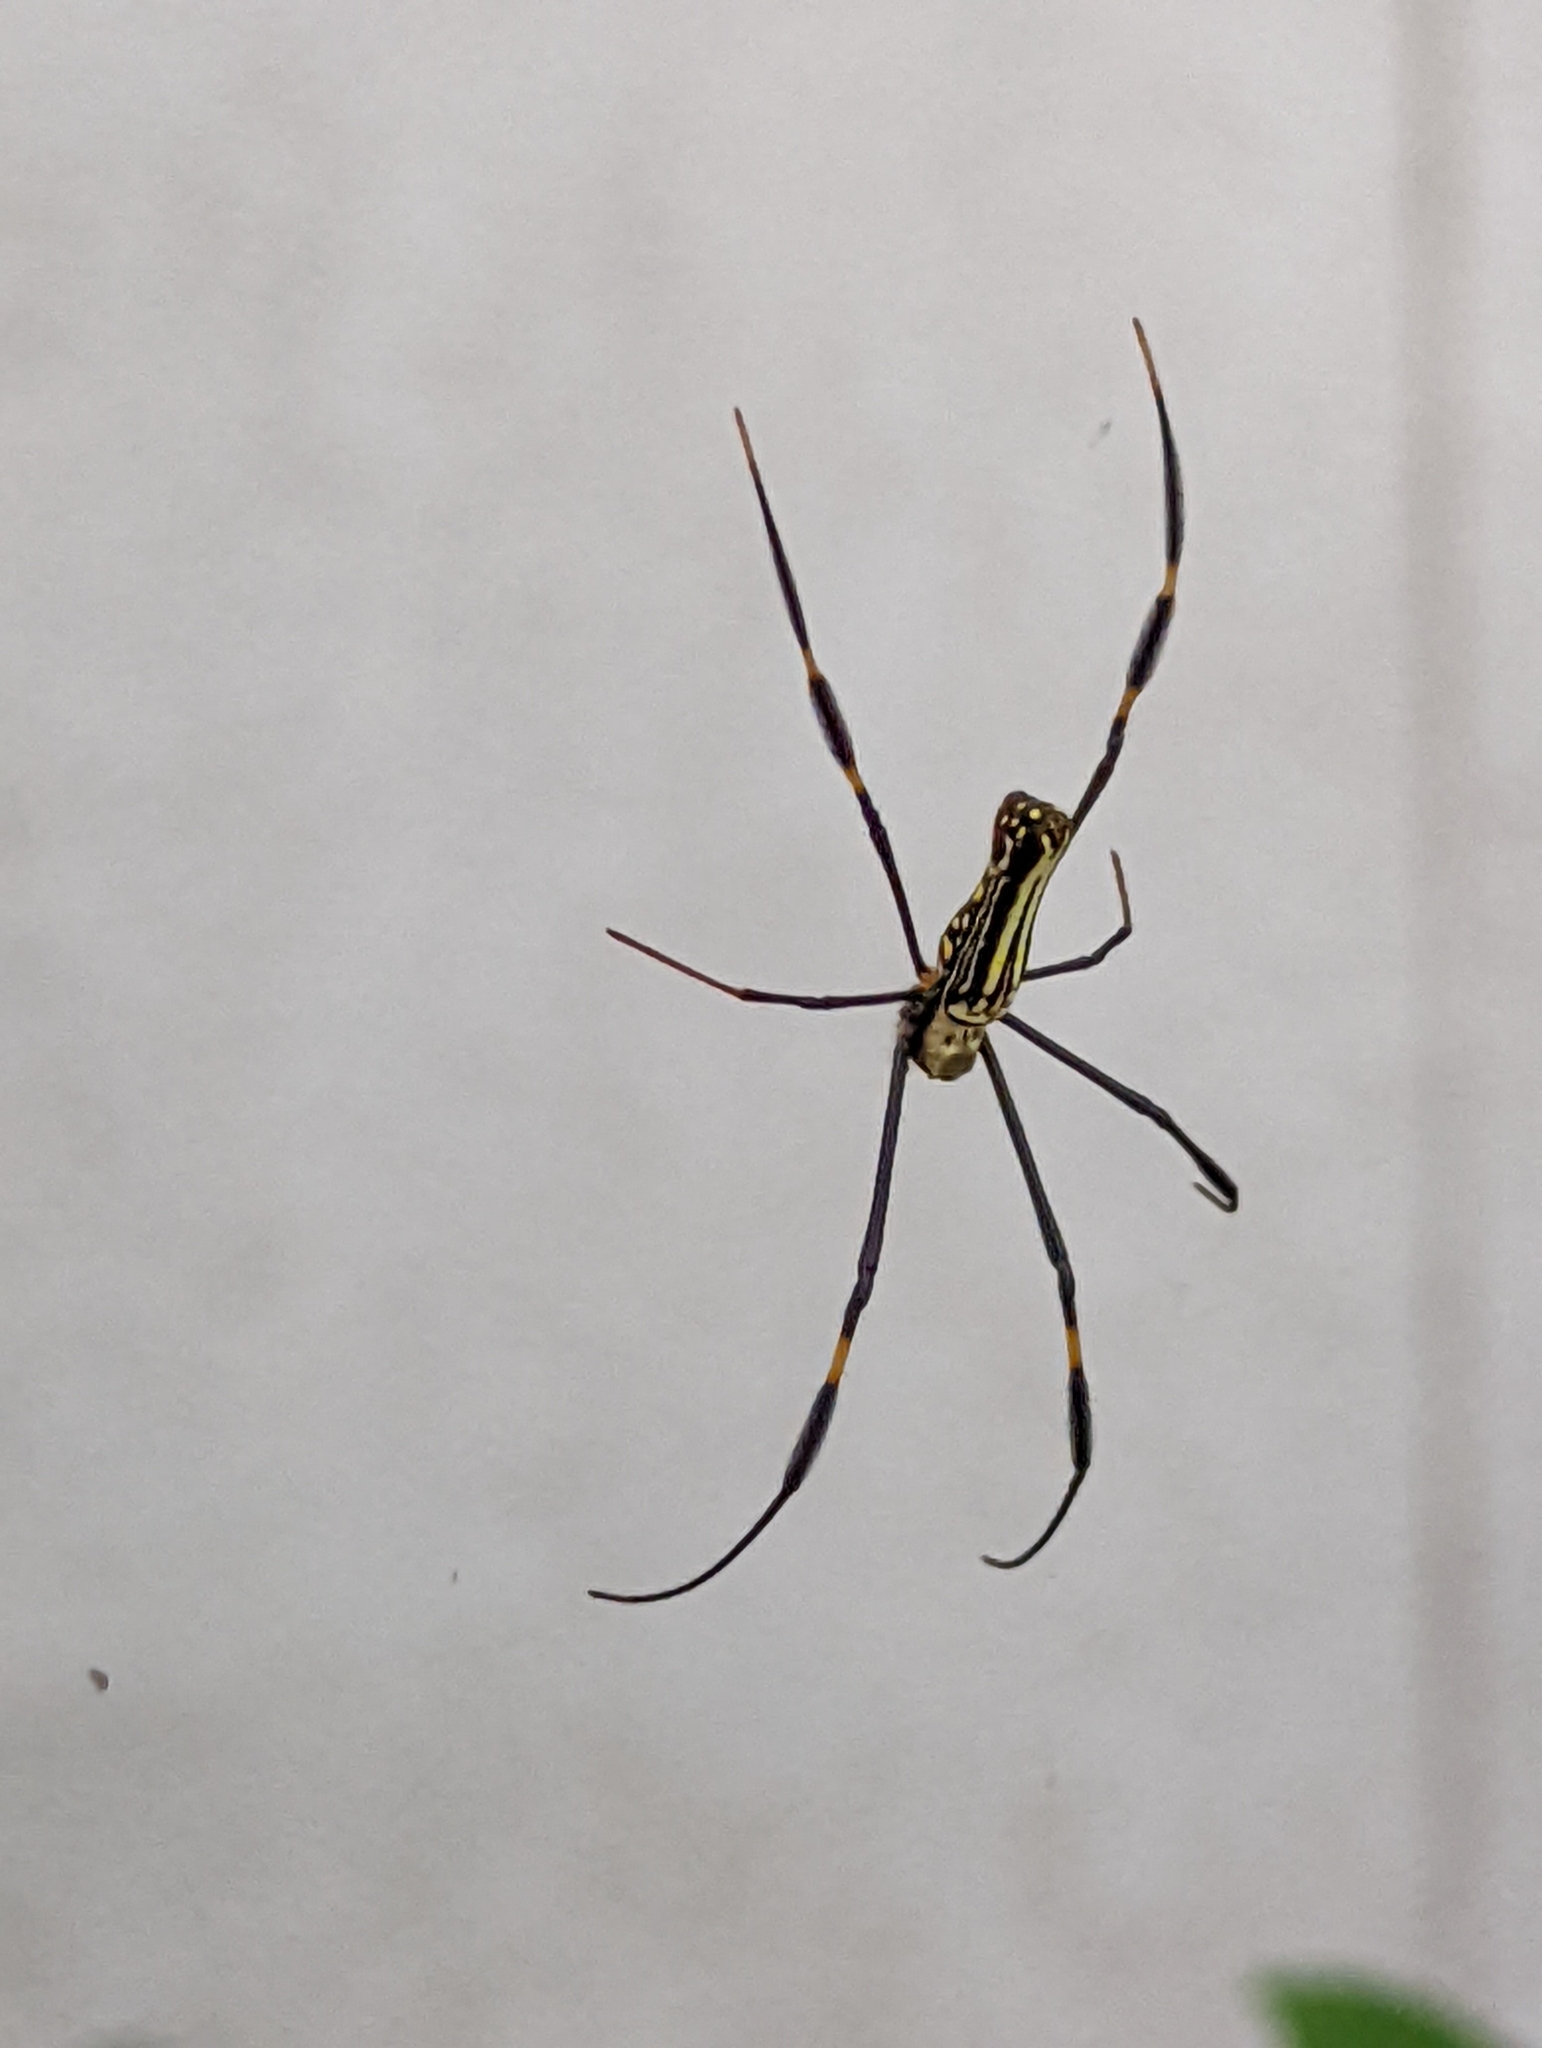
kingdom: Animalia
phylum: Arthropoda
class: Arachnida
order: Araneae
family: Araneidae
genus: Nephila
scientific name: Nephila pilipes
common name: Giant golden orb weaver
